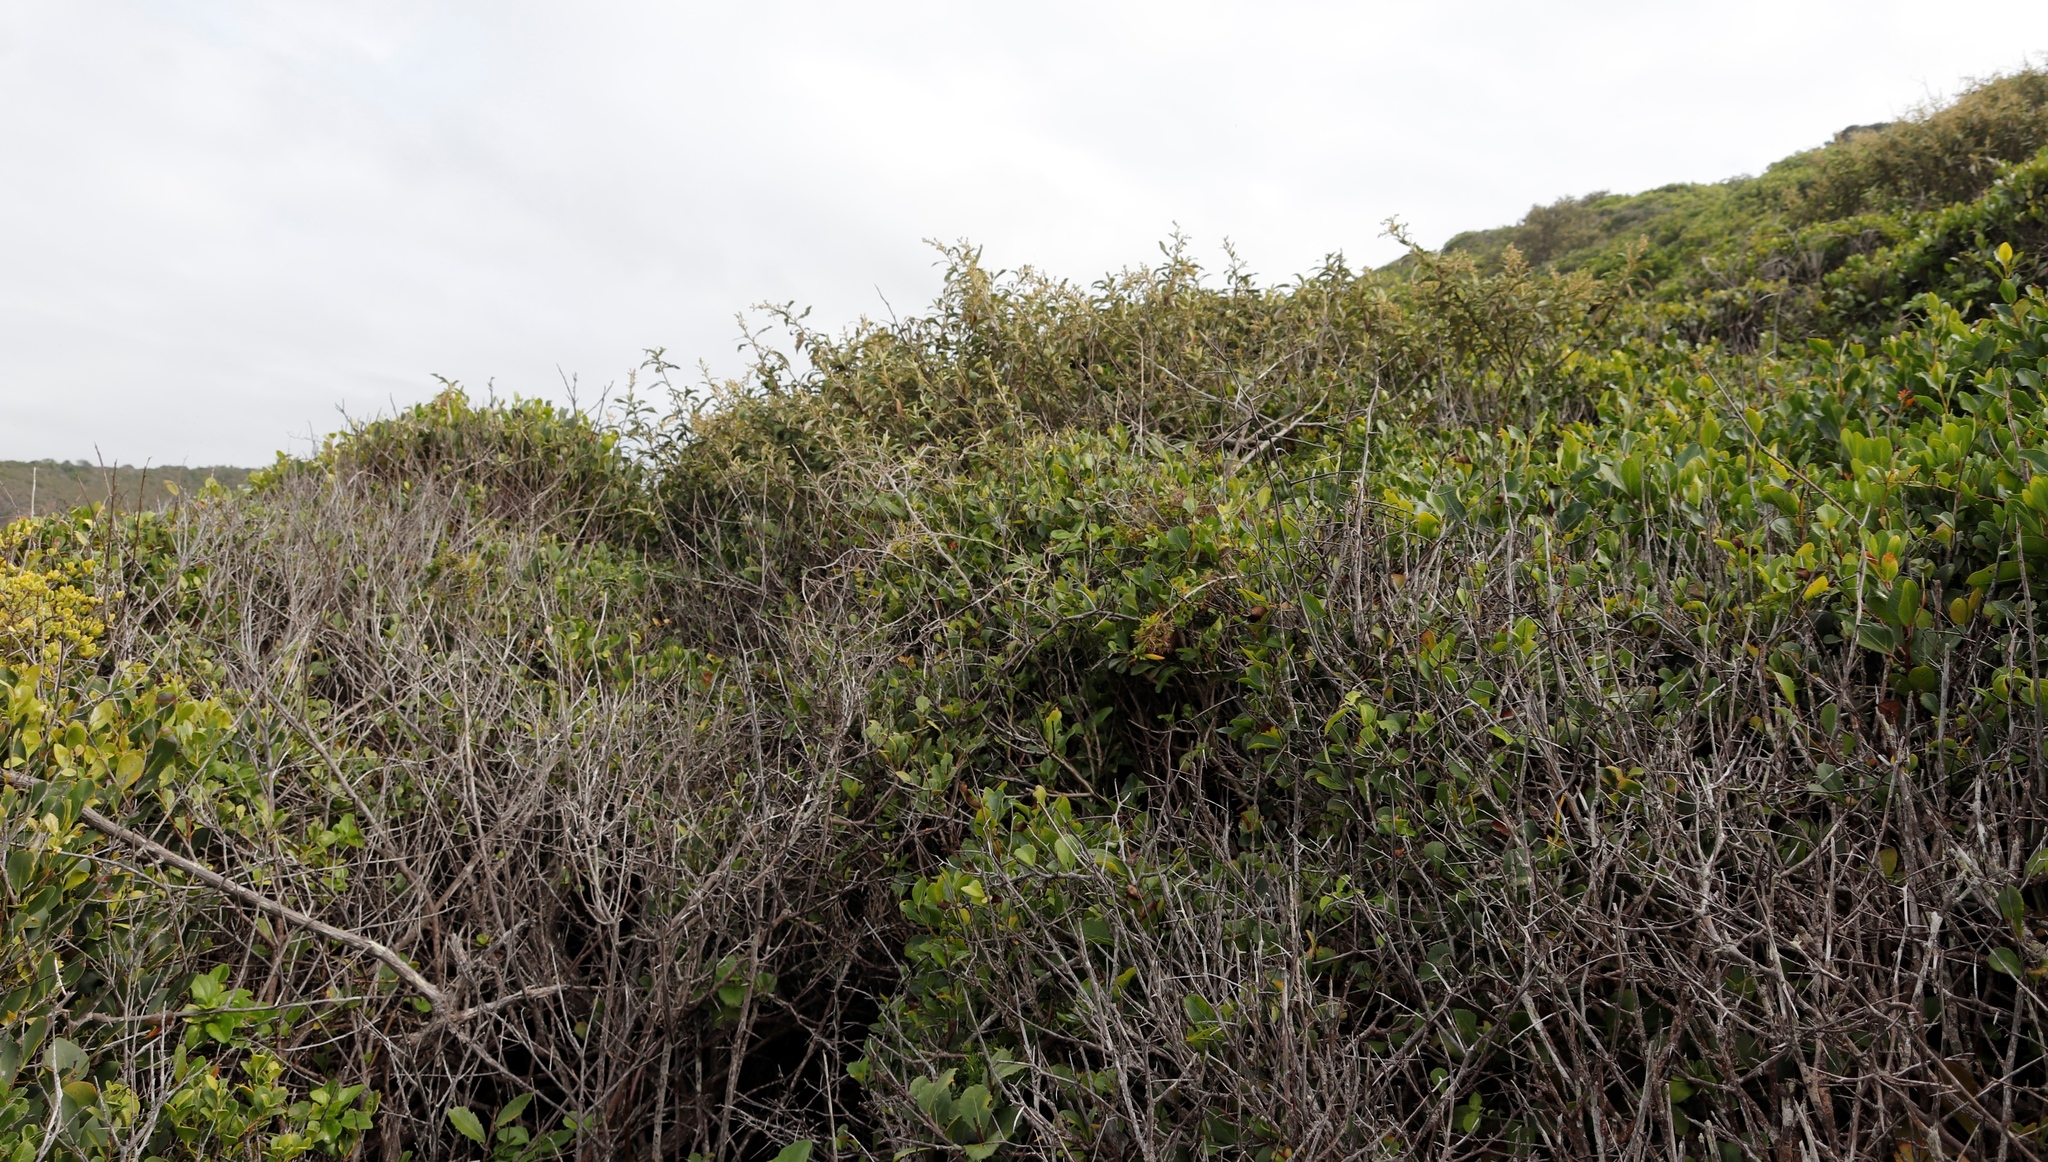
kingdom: Plantae
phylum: Tracheophyta
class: Magnoliopsida
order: Asterales
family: Asteraceae
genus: Tarchonanthus
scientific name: Tarchonanthus littoralis
